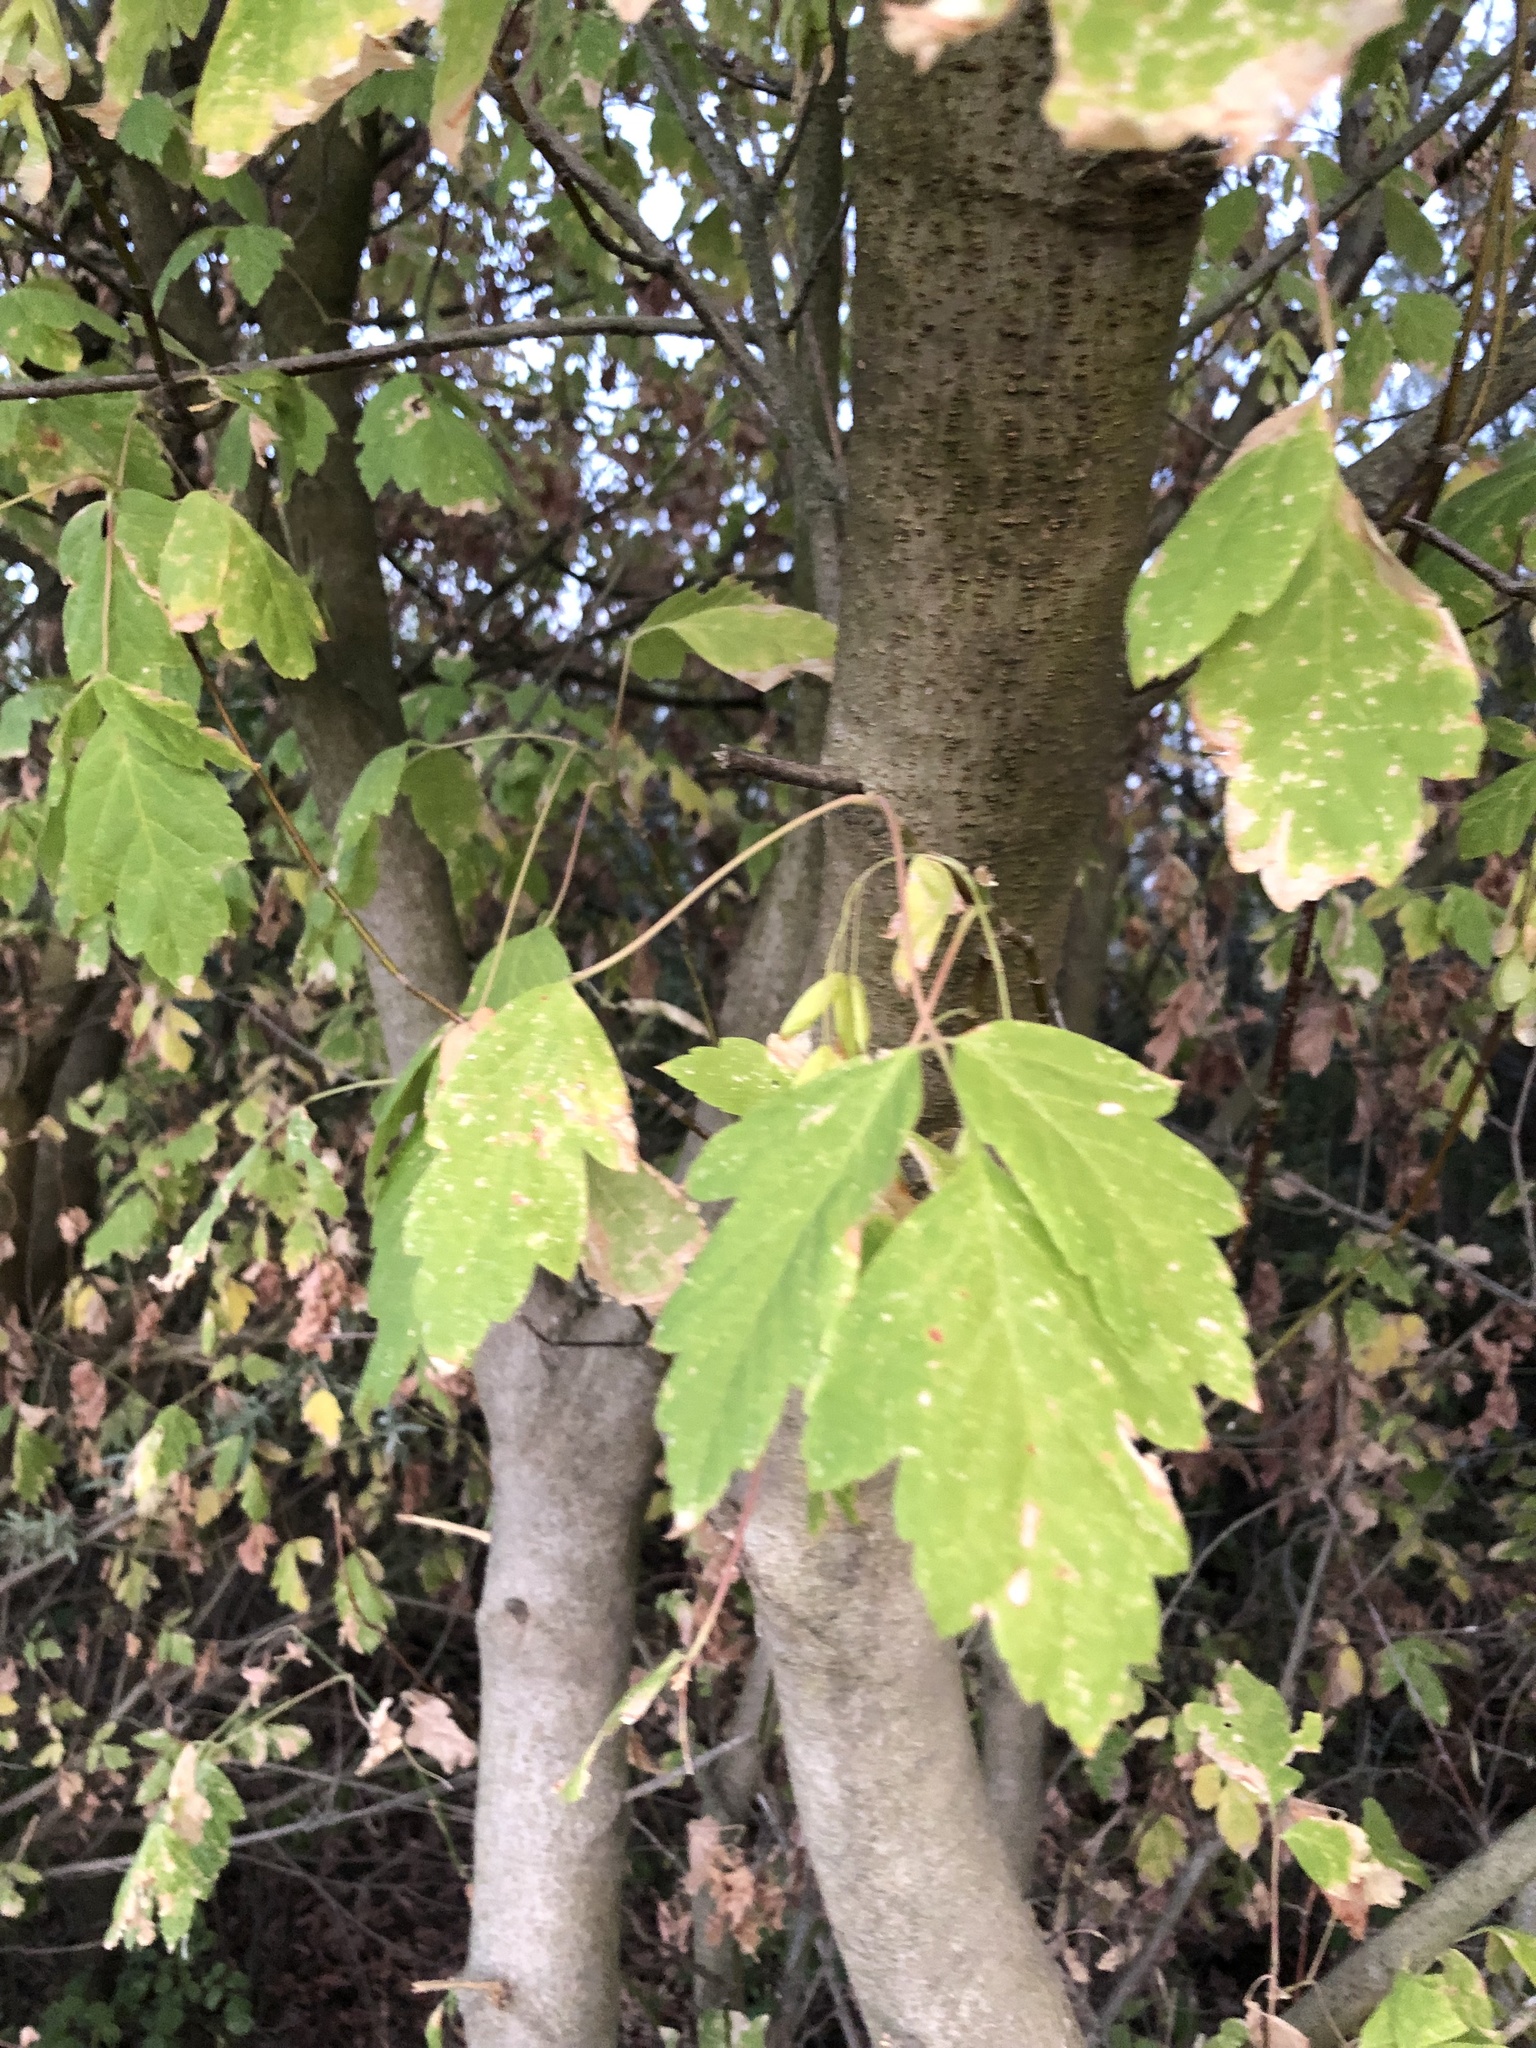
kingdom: Plantae
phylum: Tracheophyta
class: Magnoliopsida
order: Sapindales
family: Sapindaceae
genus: Acer
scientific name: Acer negundo
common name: Ashleaf maple
